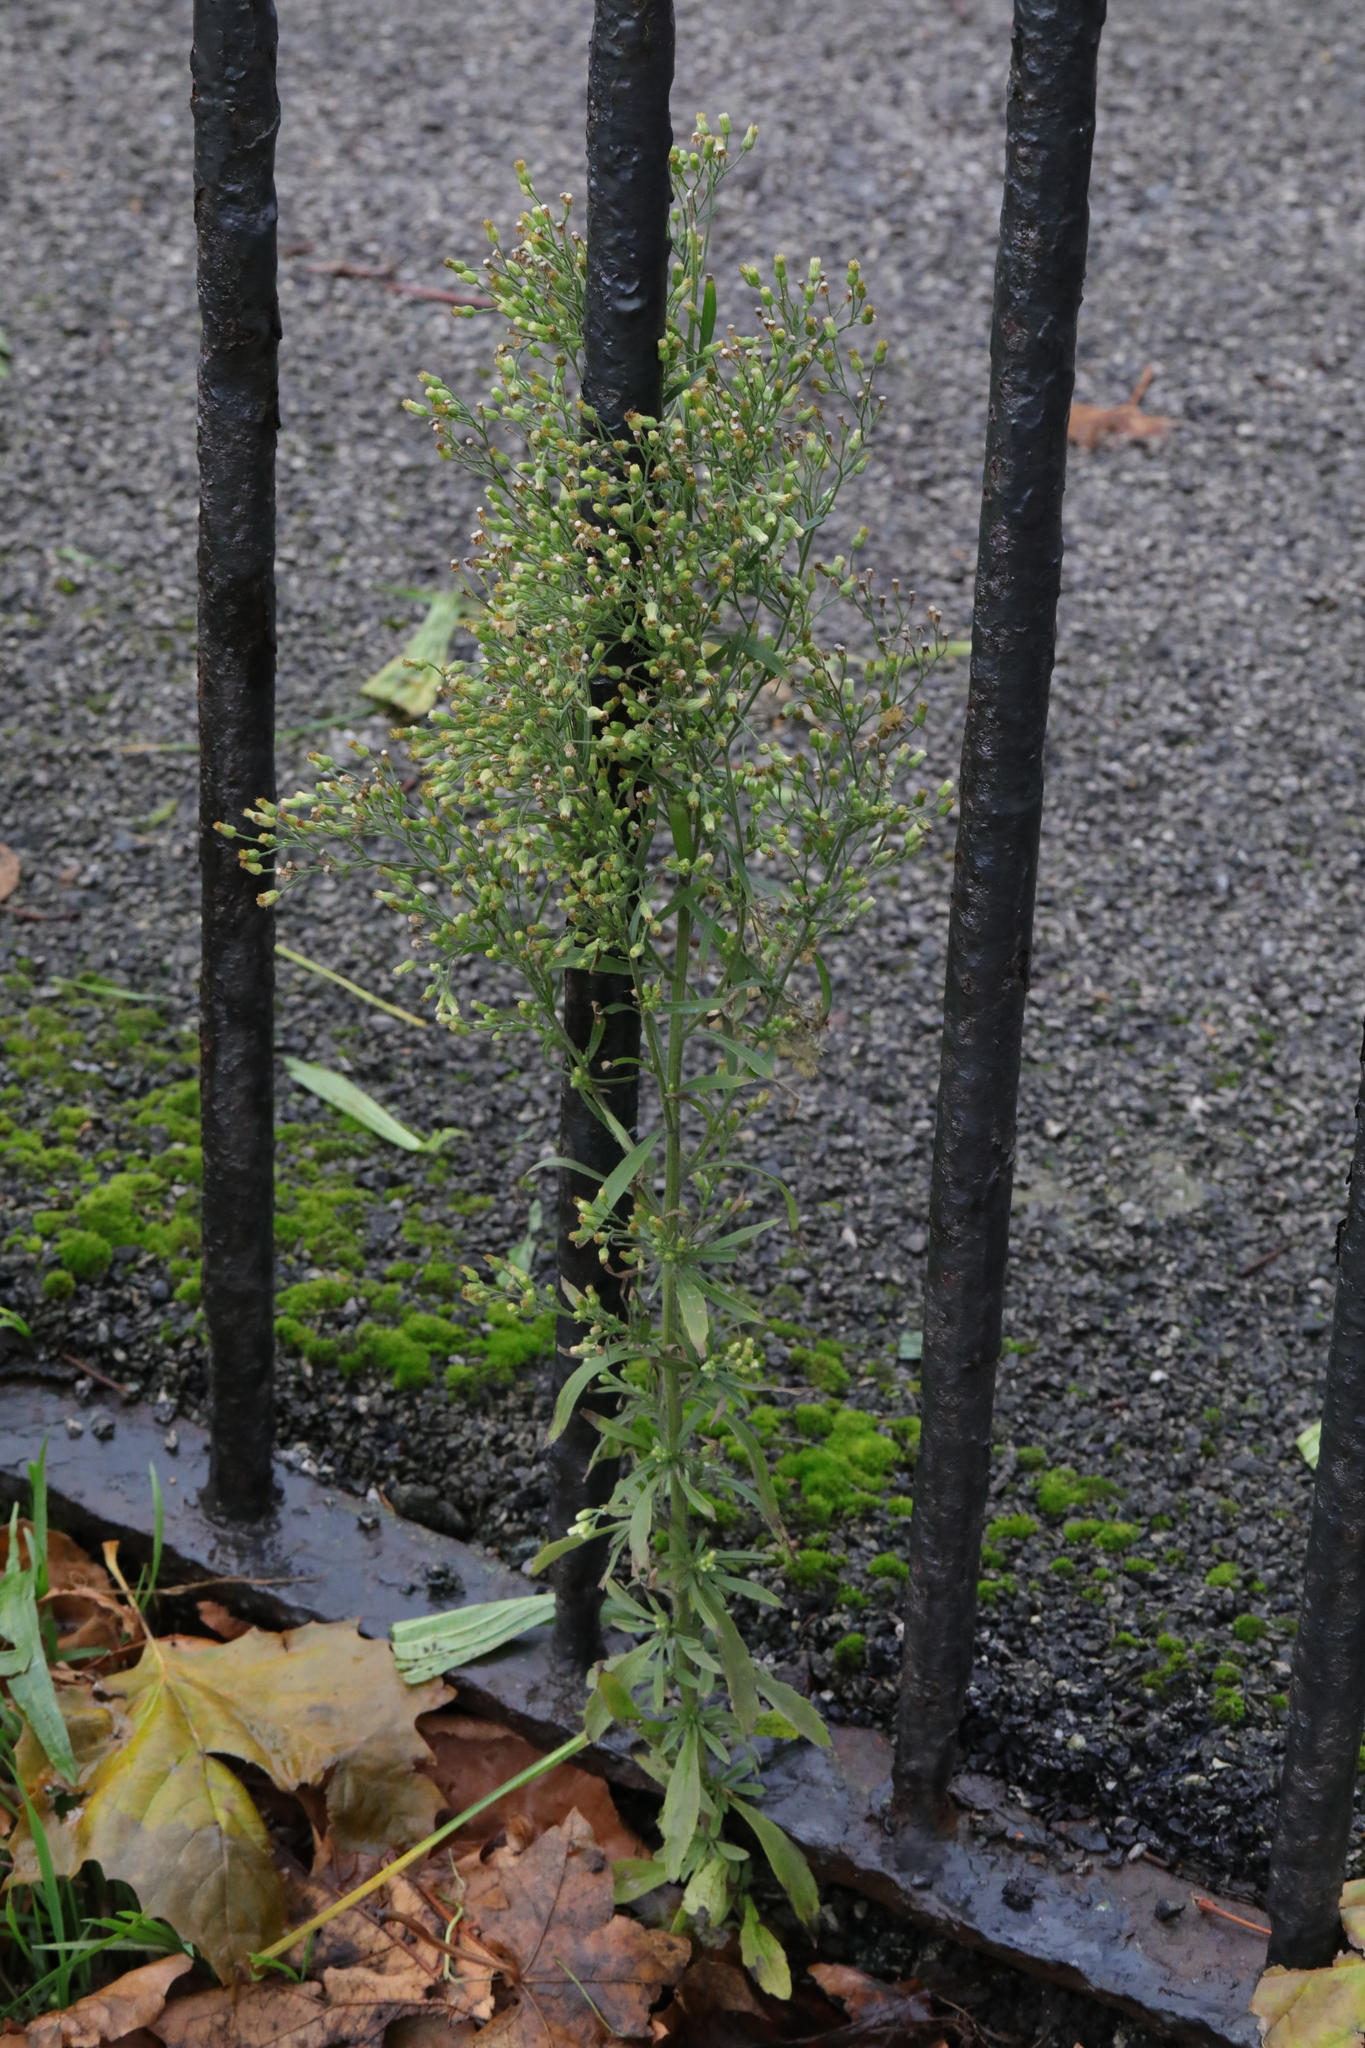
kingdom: Plantae
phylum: Tracheophyta
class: Magnoliopsida
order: Asterales
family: Asteraceae
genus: Erigeron
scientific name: Erigeron canadensis
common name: Canadian fleabane
